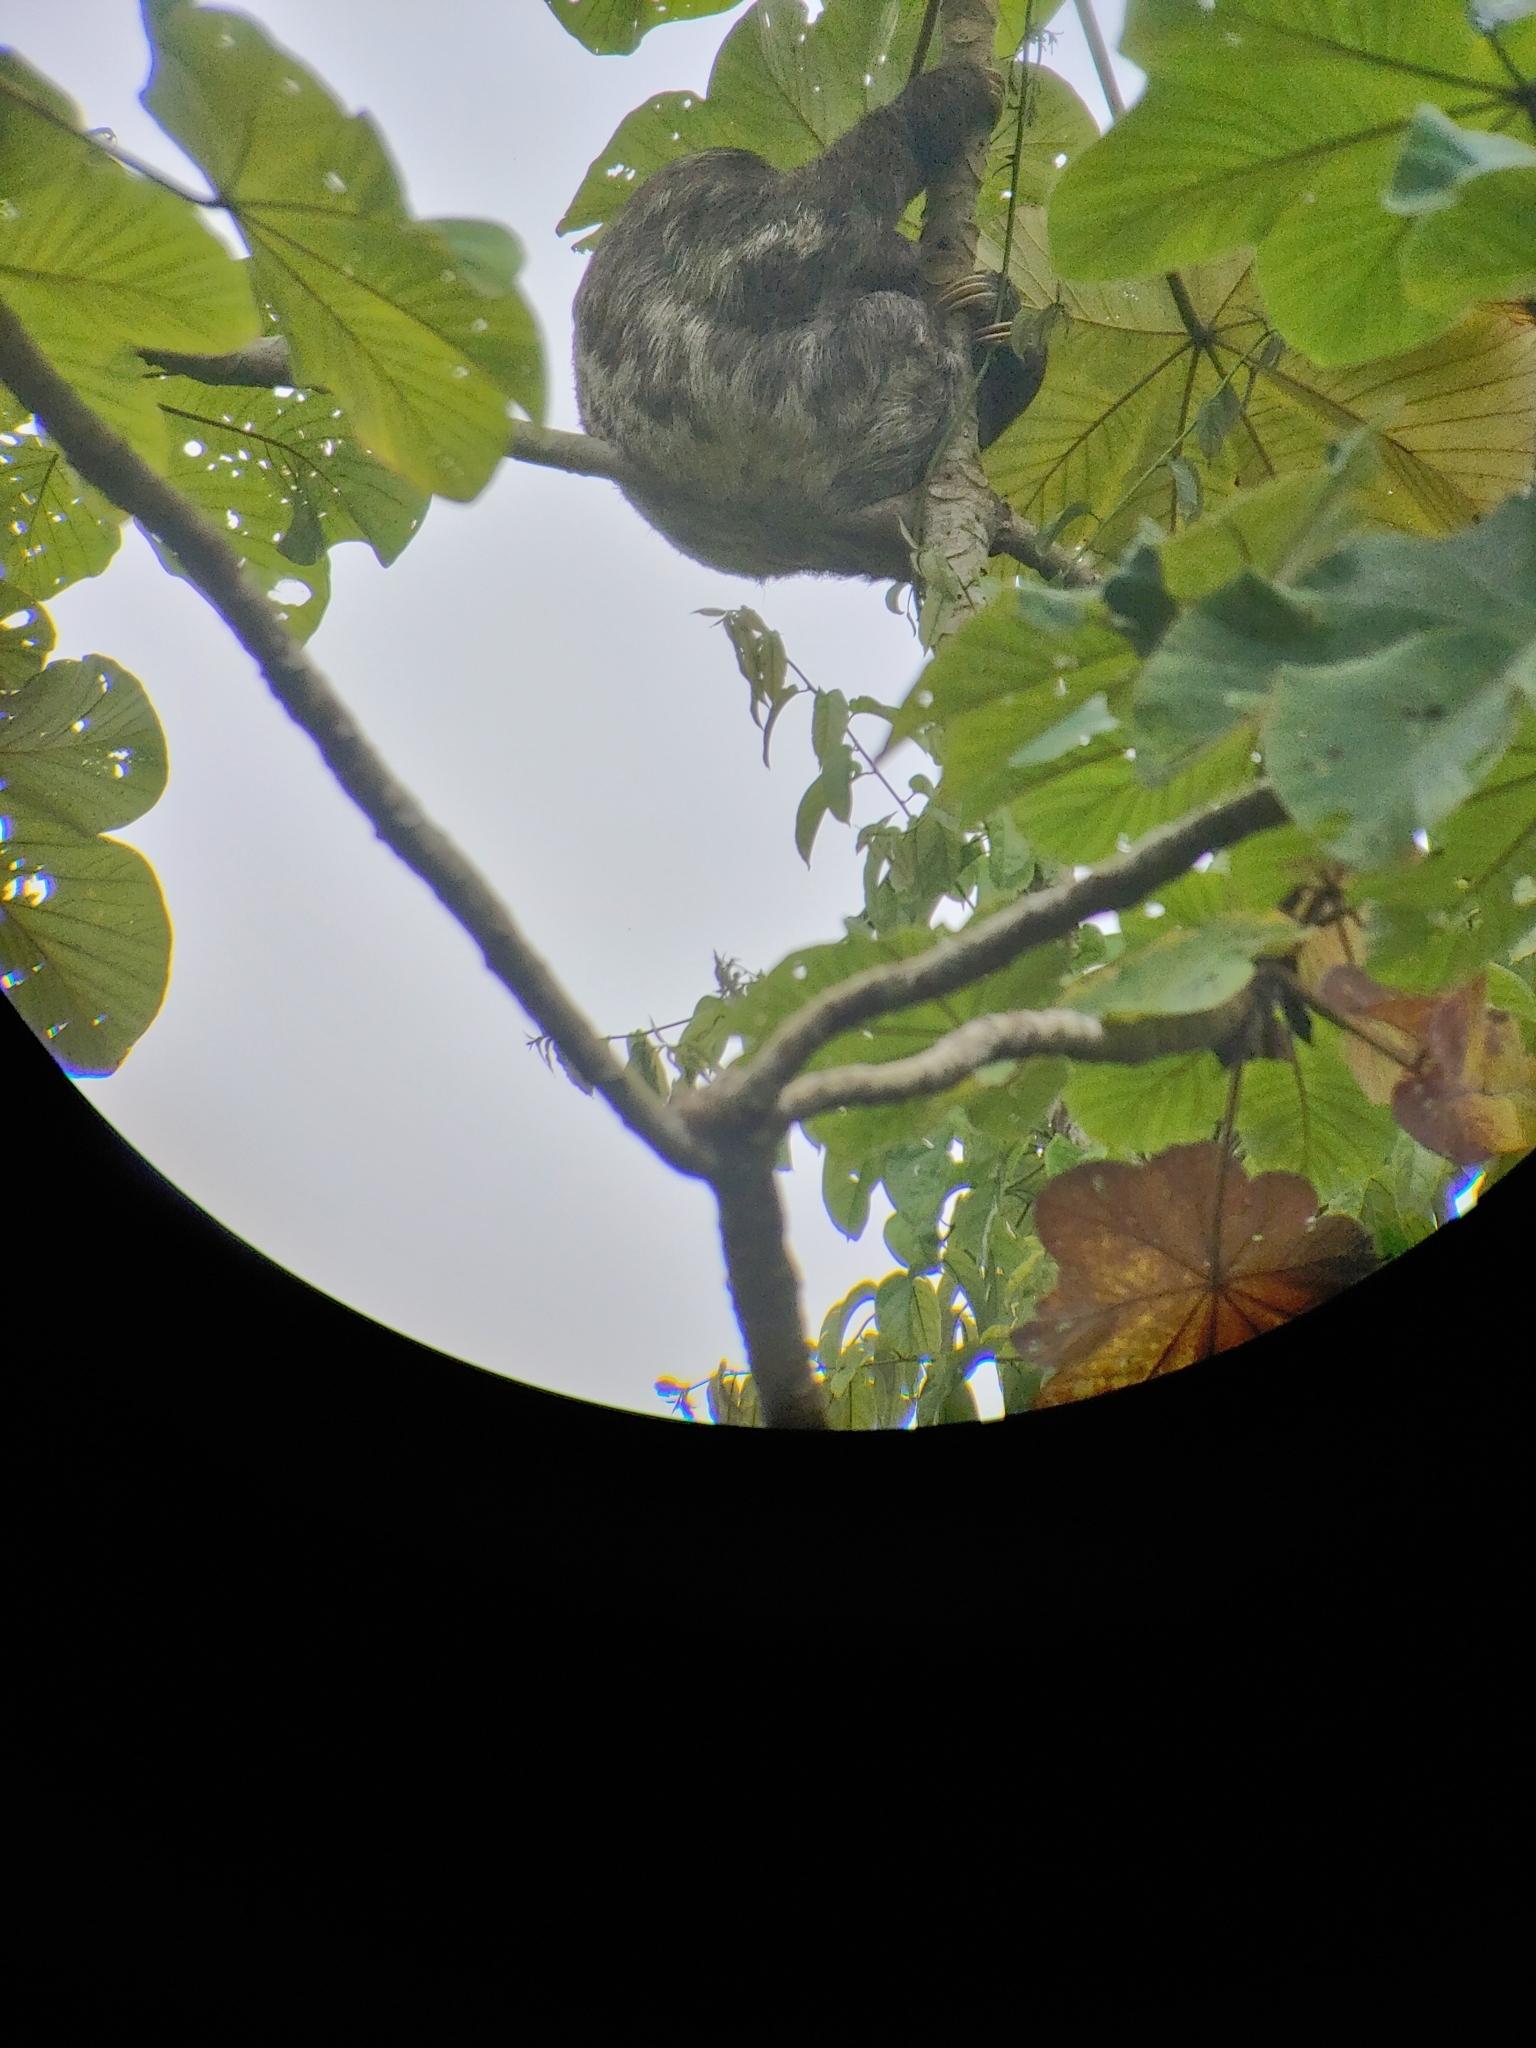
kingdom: Animalia
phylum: Chordata
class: Mammalia
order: Pilosa
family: Bradypodidae
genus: Bradypus
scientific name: Bradypus variegatus
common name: Brown-throated three-toed sloth
